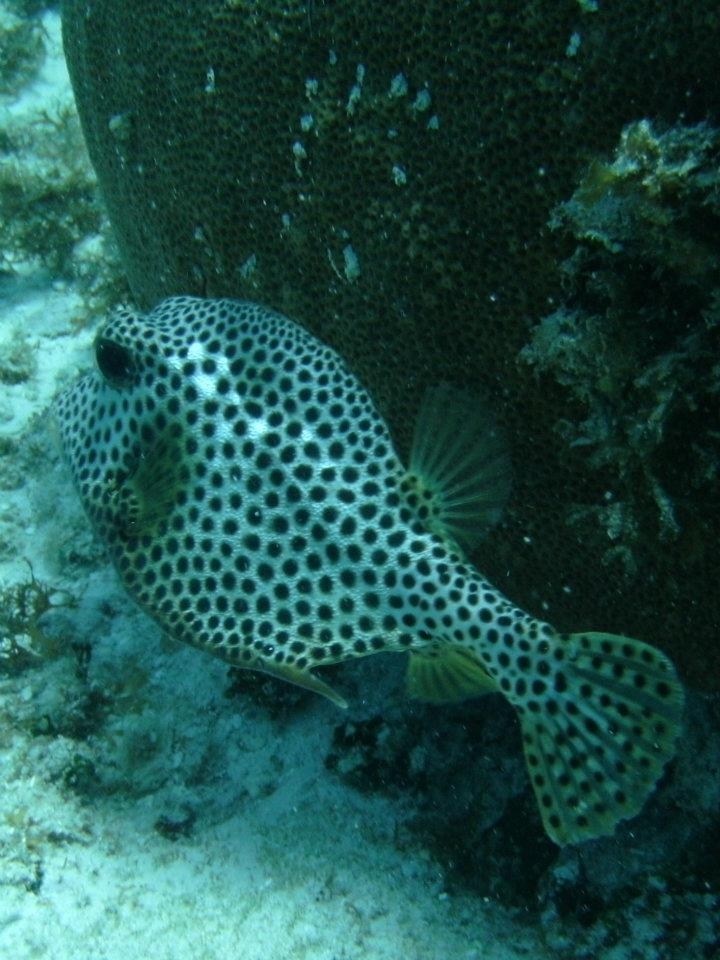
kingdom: Animalia
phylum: Chordata
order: Tetraodontiformes
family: Ostraciidae
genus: Lactophrys
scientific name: Lactophrys bicaudalis
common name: Spotted trunkfish
